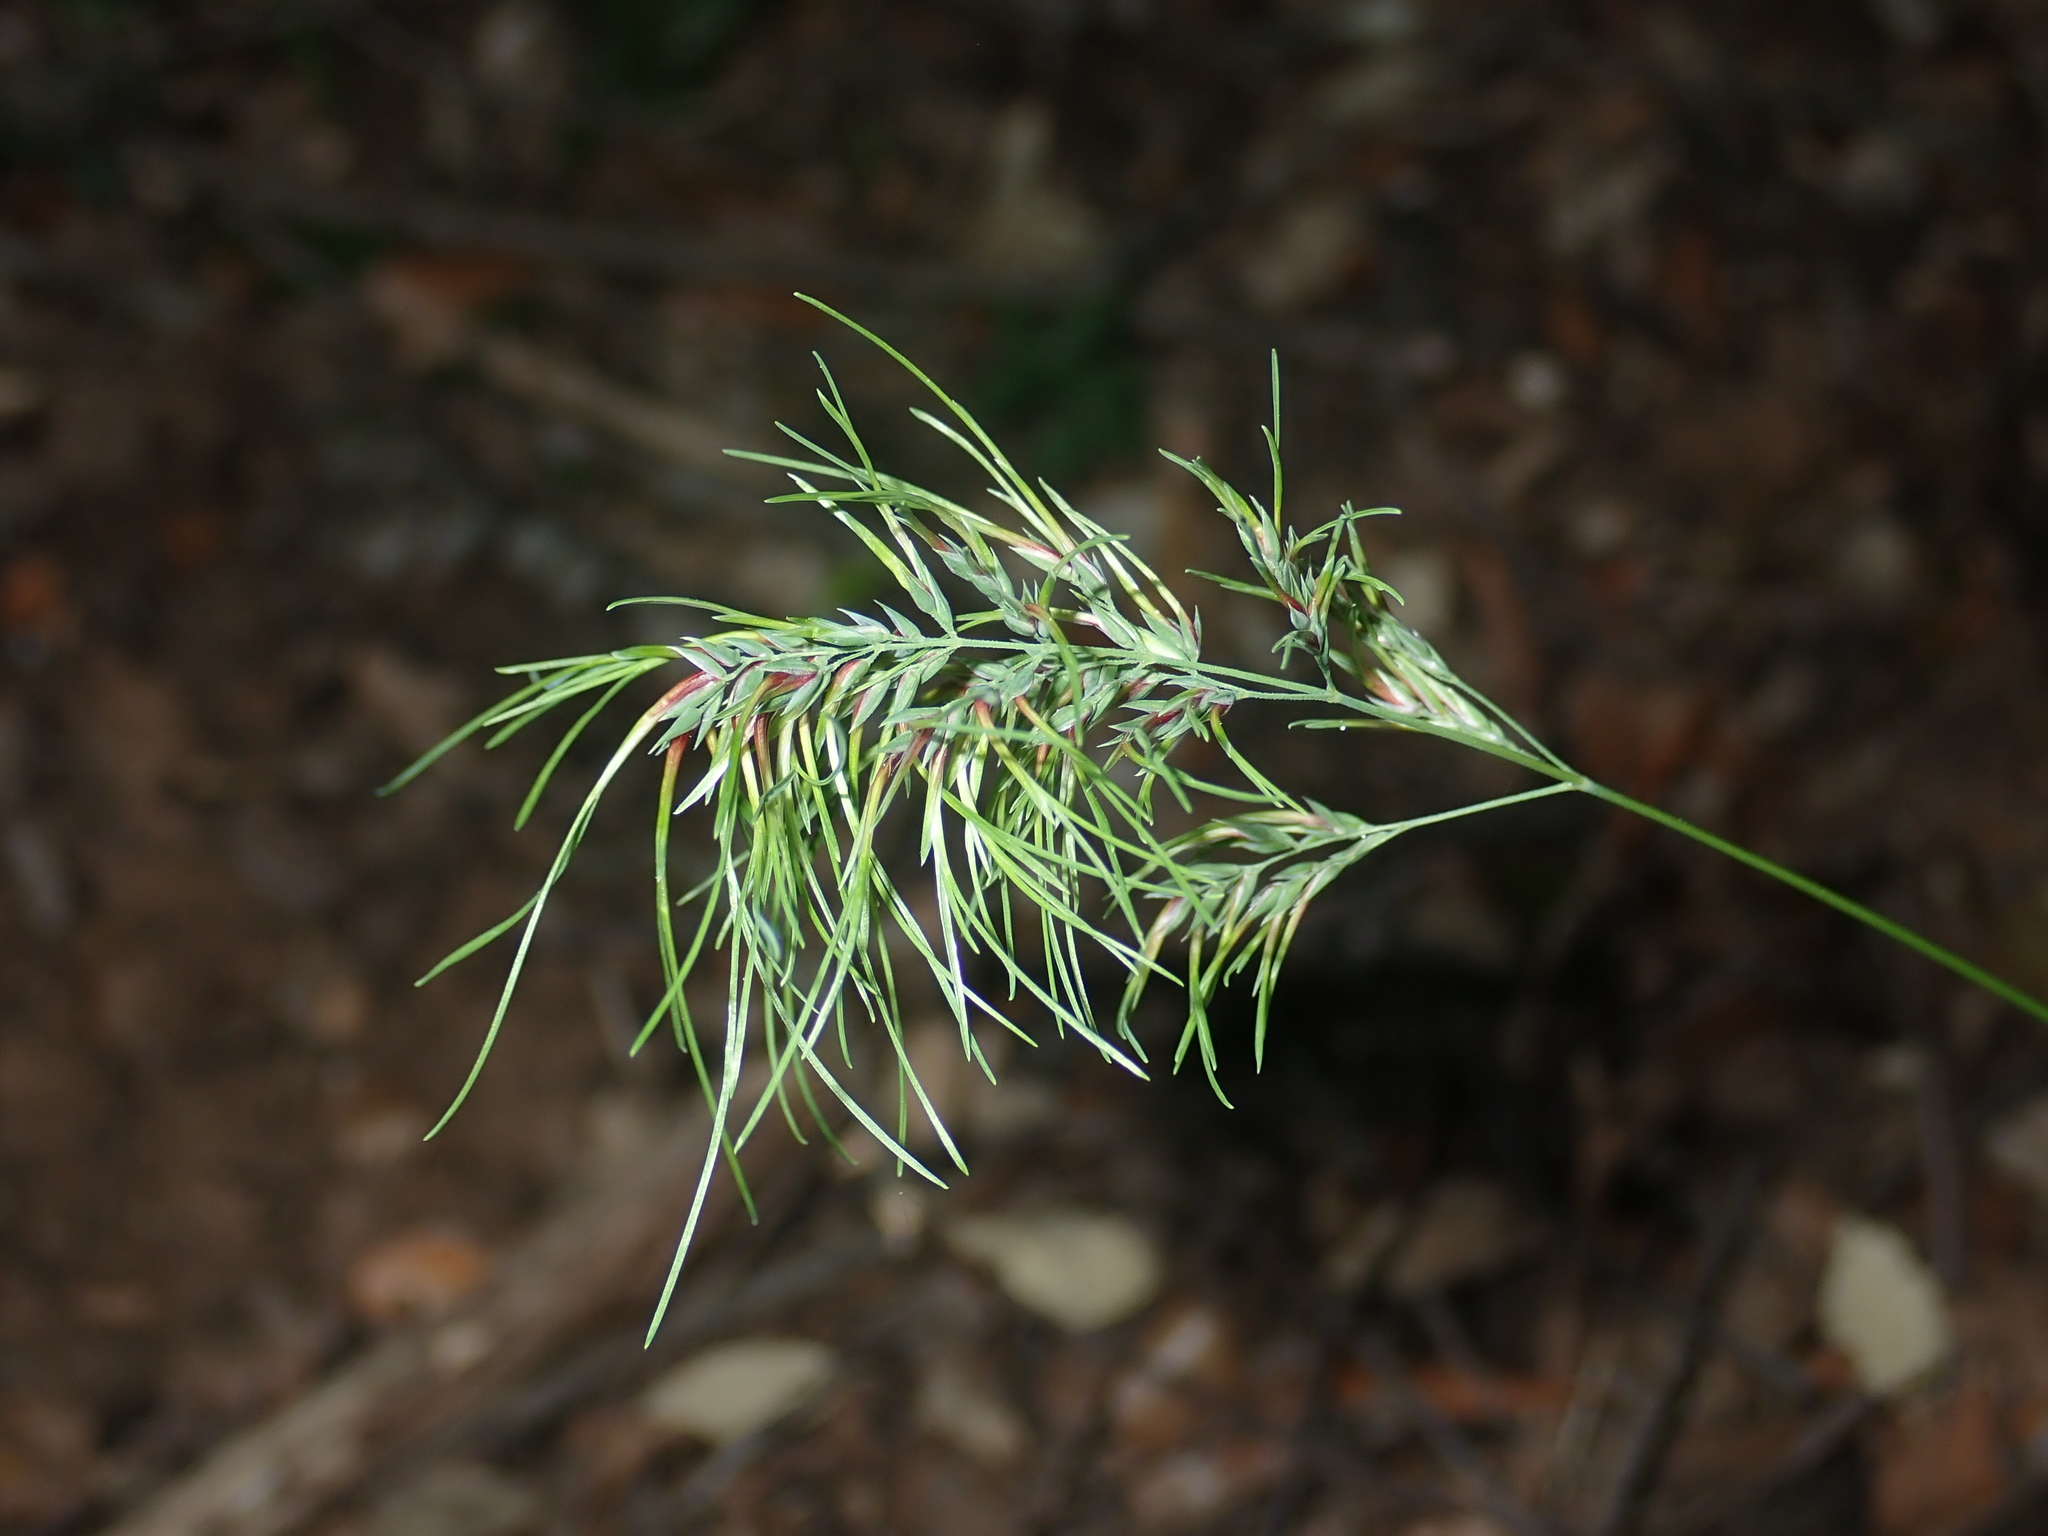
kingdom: Plantae
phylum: Tracheophyta
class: Liliopsida
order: Poales
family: Poaceae
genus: Poa
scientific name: Poa bulbosa
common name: Bulbous bluegrass
